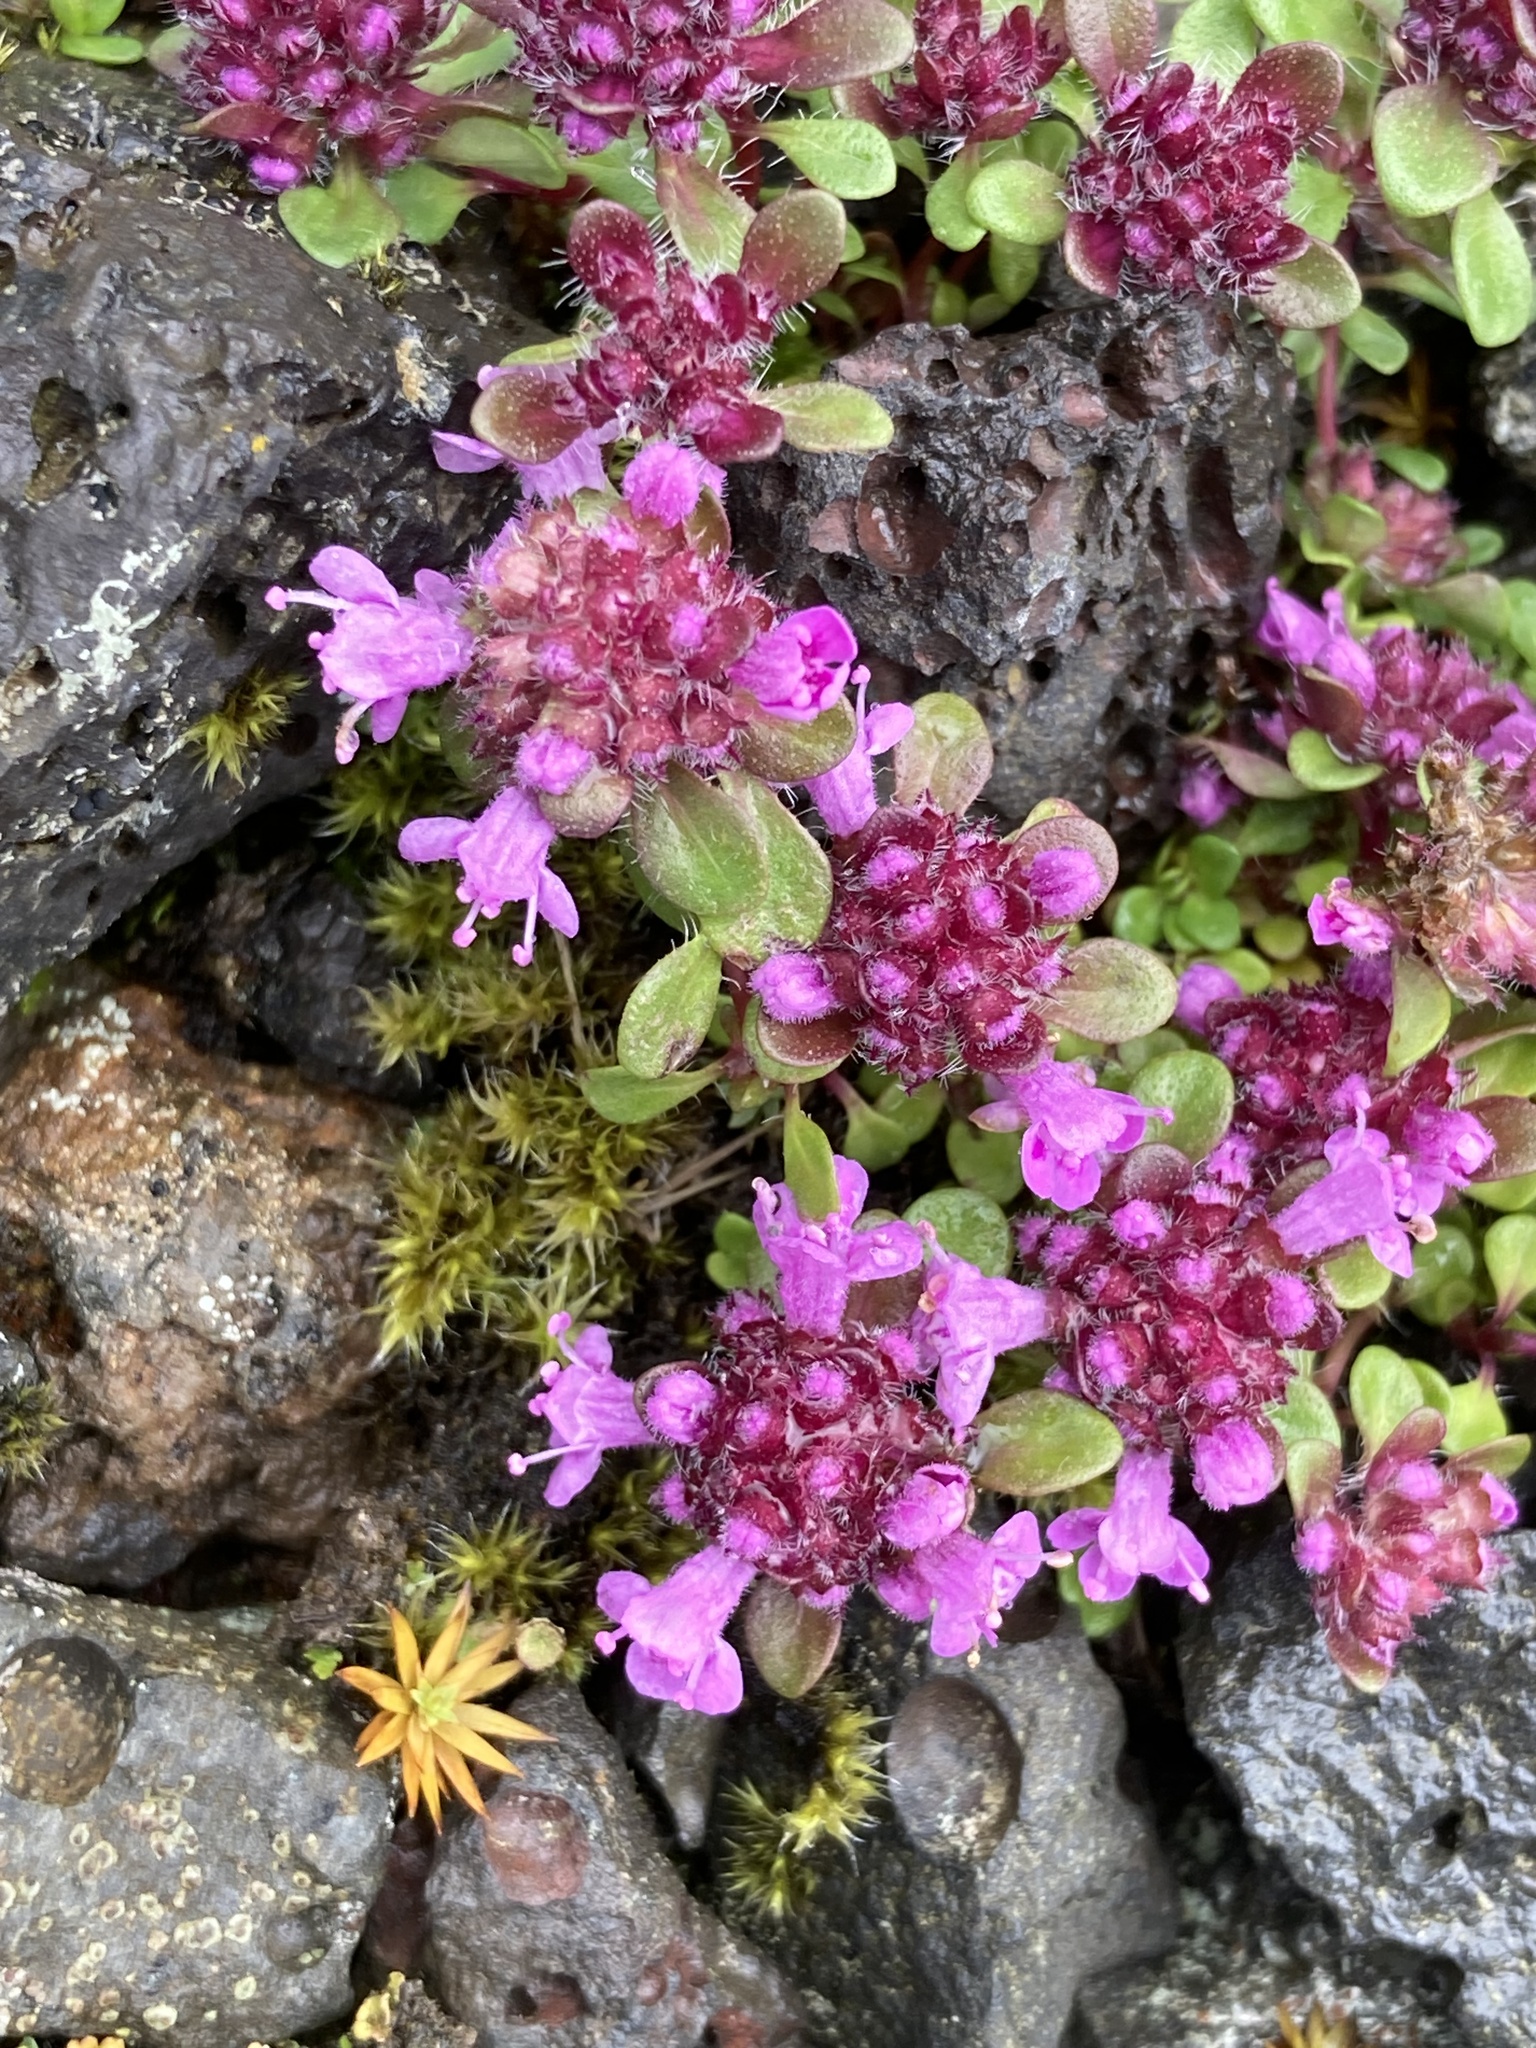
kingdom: Plantae
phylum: Tracheophyta
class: Magnoliopsida
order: Lamiales
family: Lamiaceae
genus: Thymus
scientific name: Thymus praecox
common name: Wild thyme
